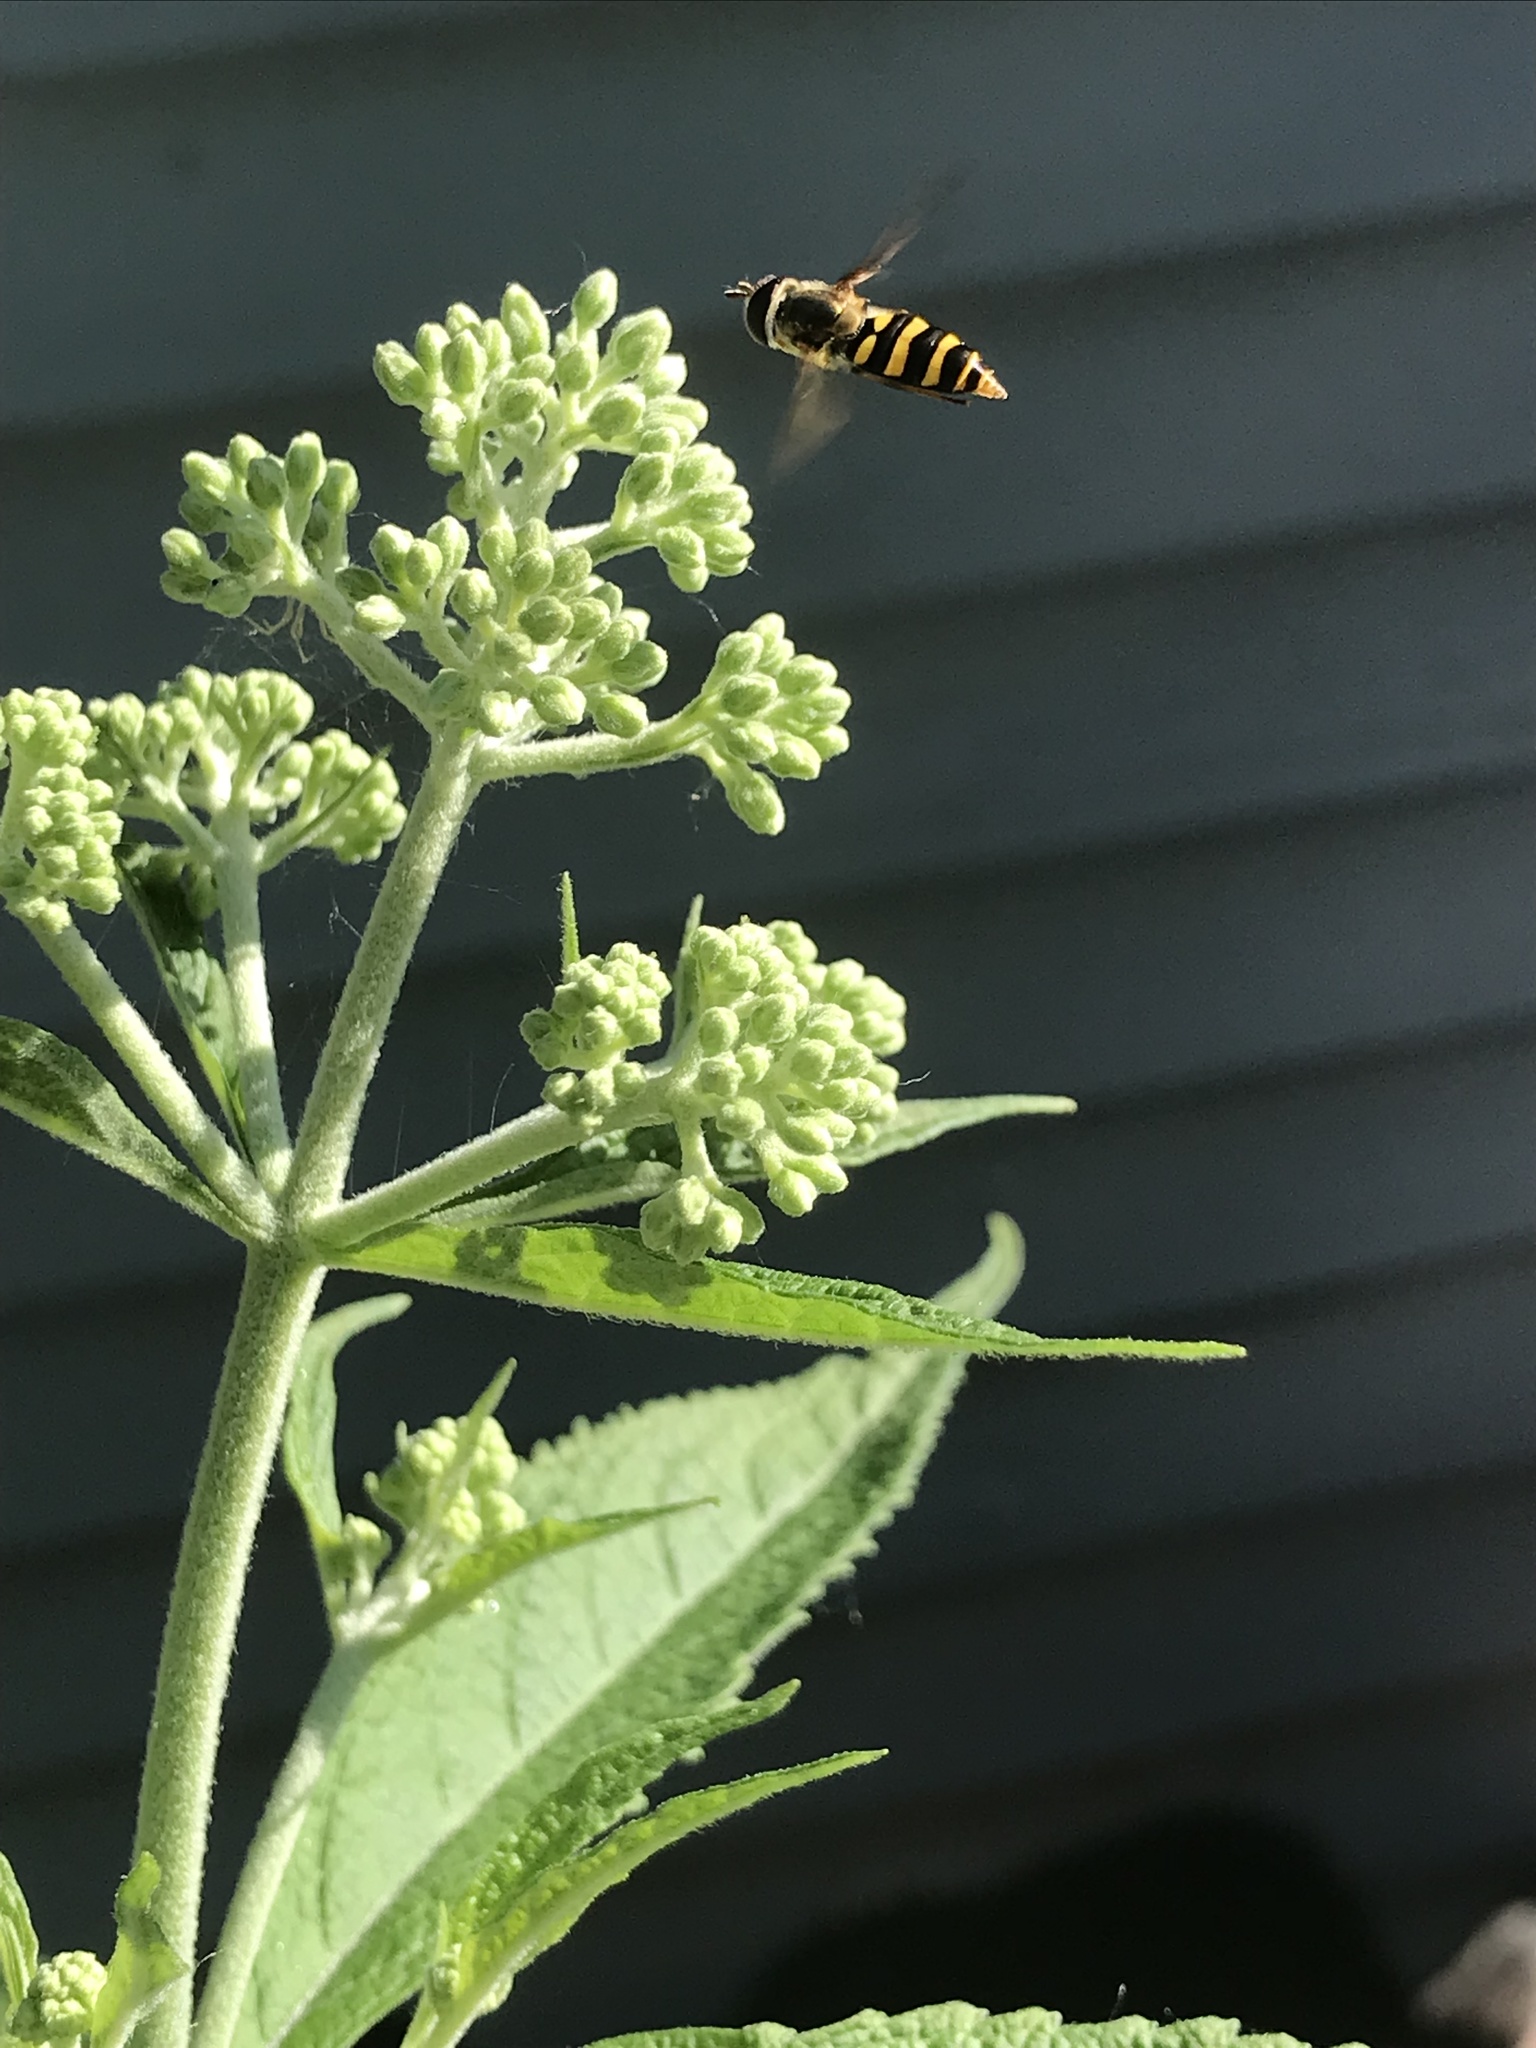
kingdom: Animalia
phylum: Arthropoda
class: Insecta
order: Diptera
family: Syrphidae
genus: Eupeodes
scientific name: Eupeodes
